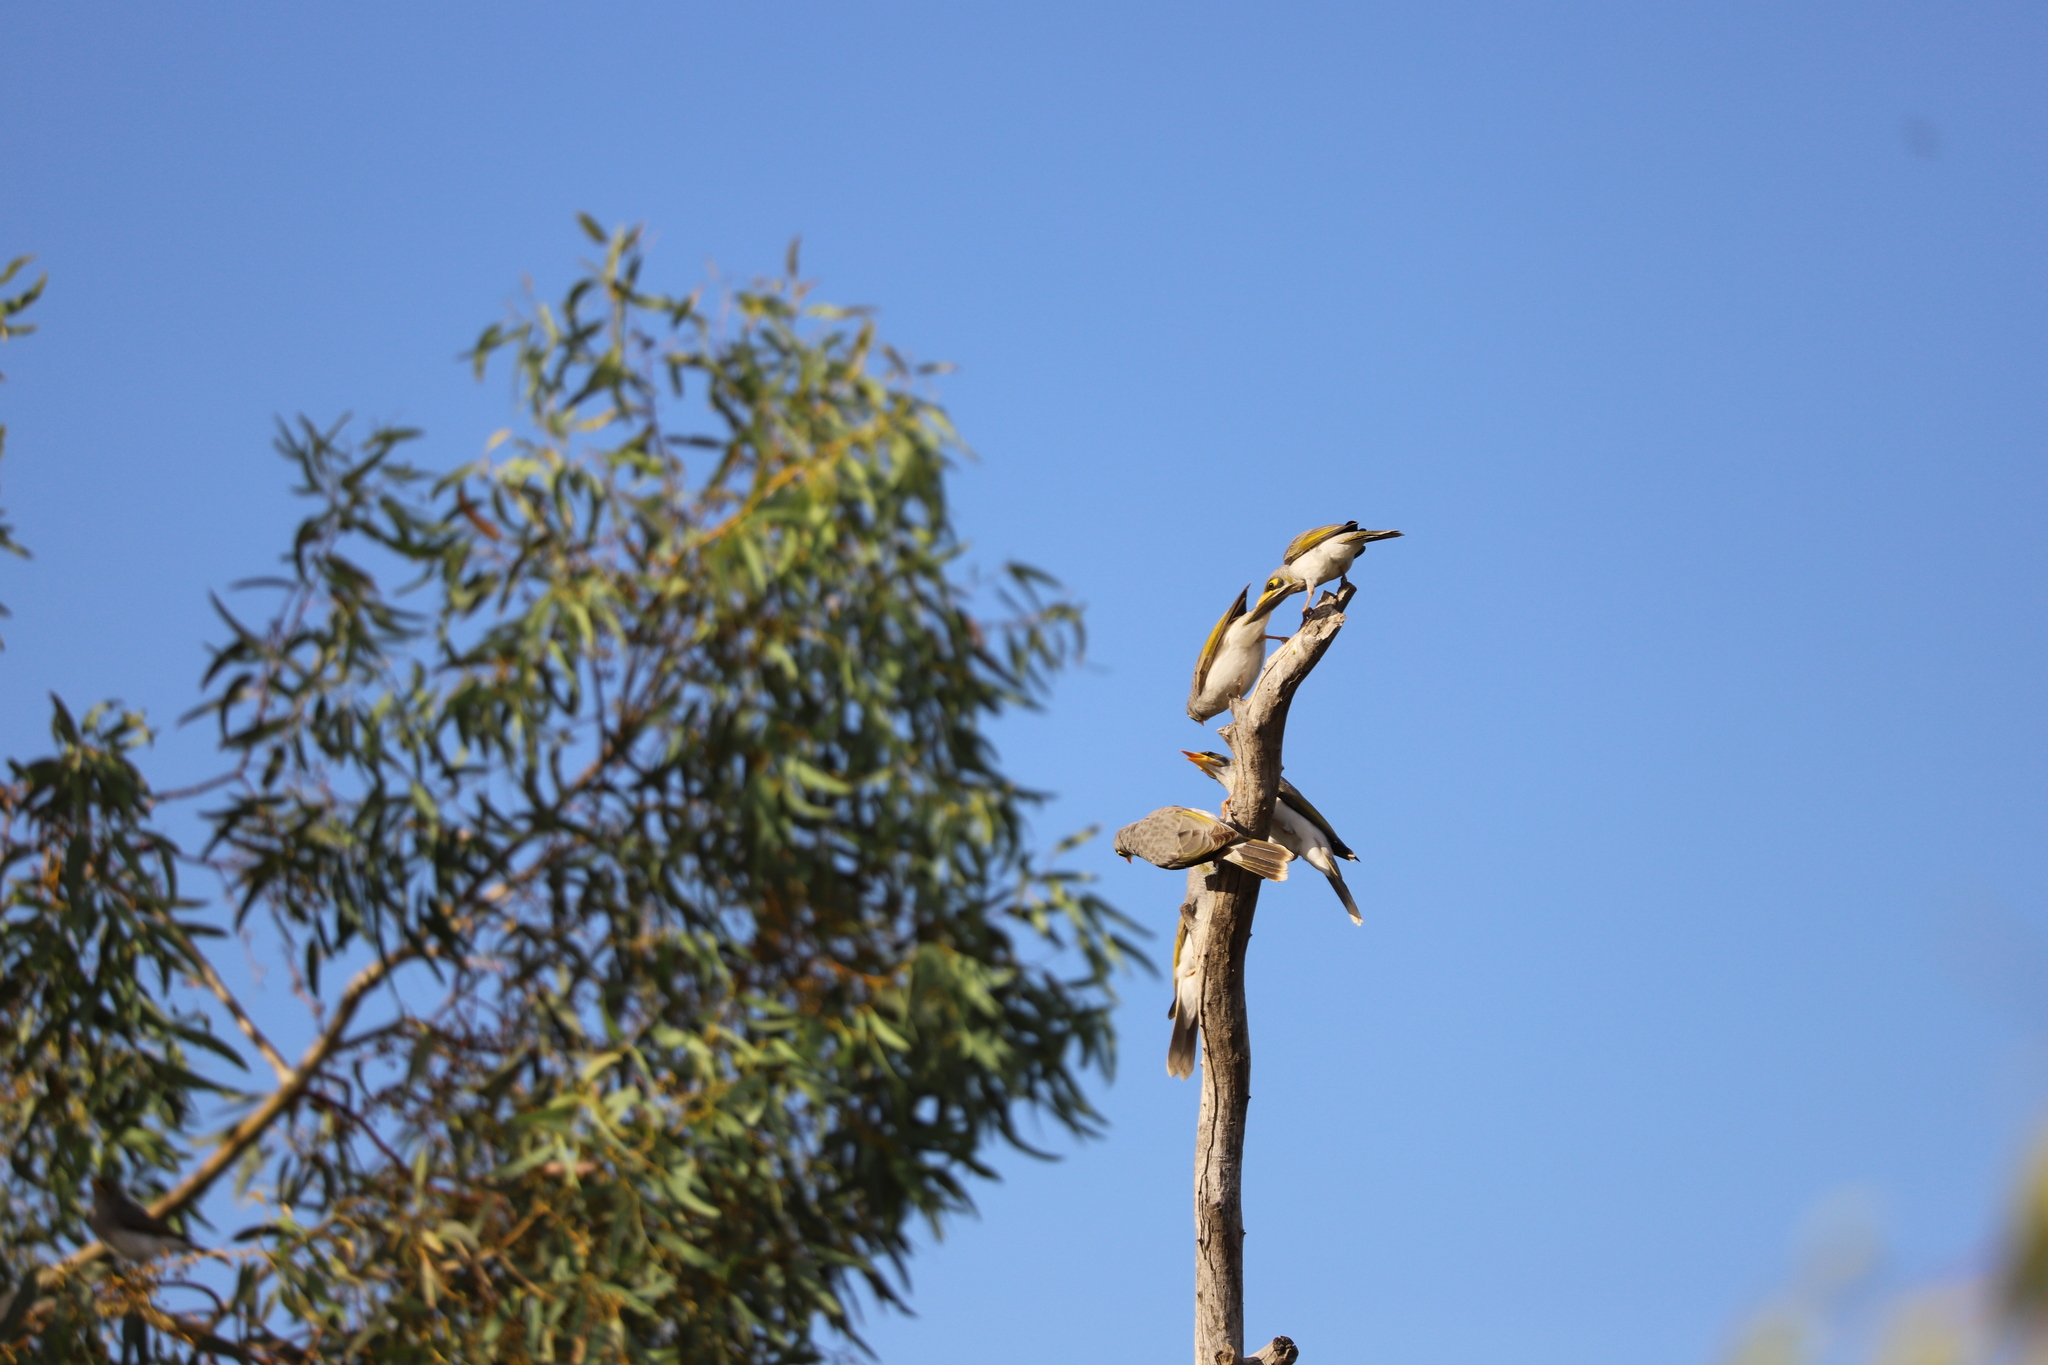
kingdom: Animalia
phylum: Chordata
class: Aves
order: Passeriformes
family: Meliphagidae
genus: Manorina
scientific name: Manorina flavigula
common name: Yellow-throated miner
